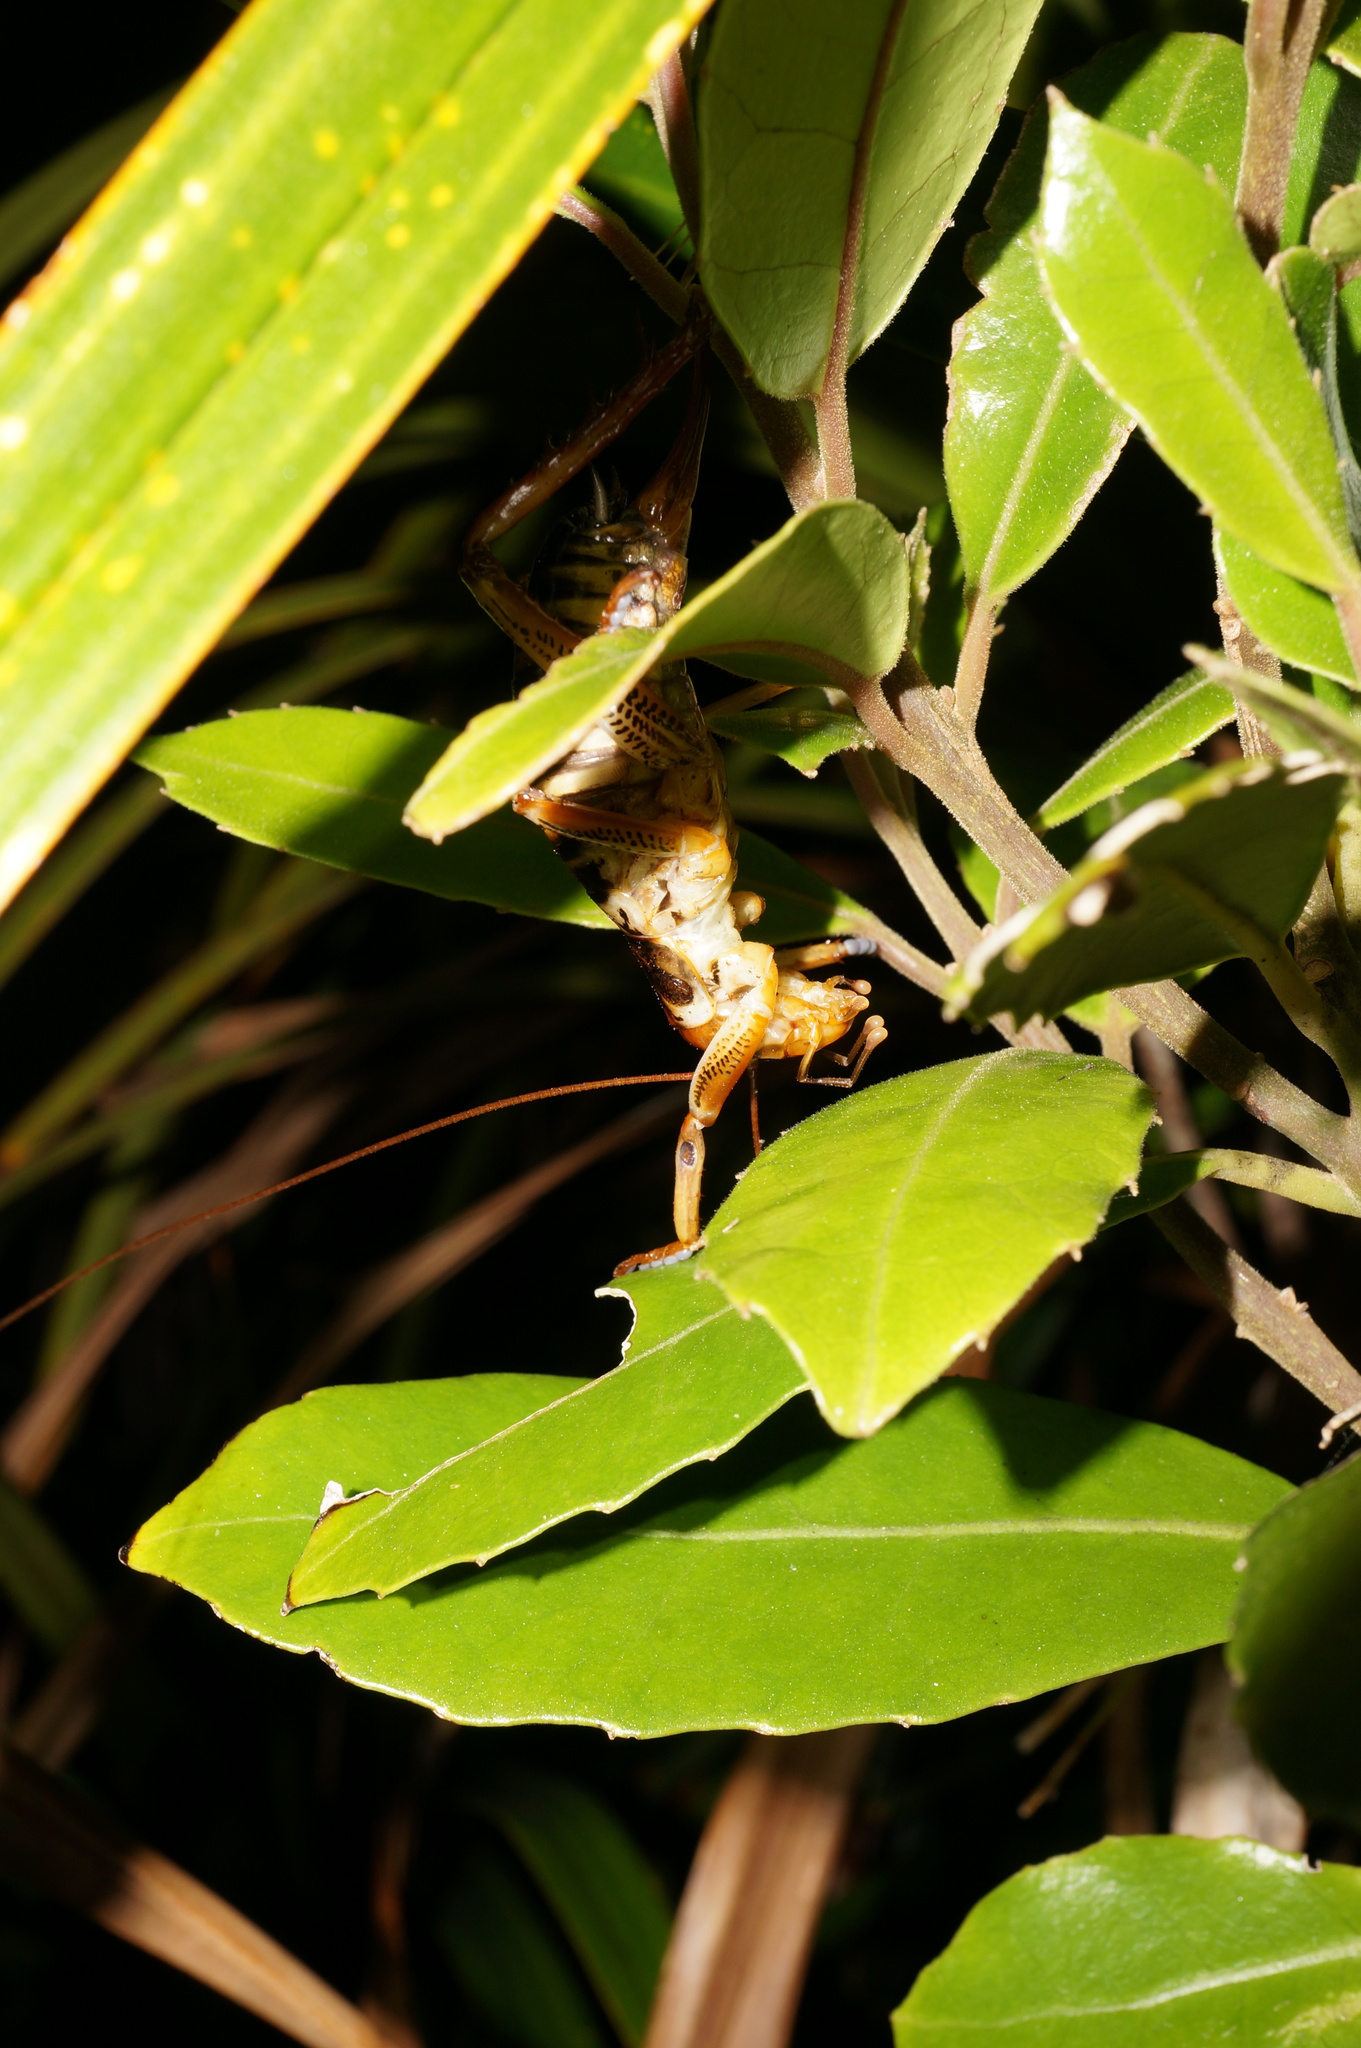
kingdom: Animalia
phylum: Arthropoda
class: Insecta
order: Orthoptera
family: Anostostomatidae
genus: Hemideina
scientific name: Hemideina crassidens
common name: Wellington tree weta
